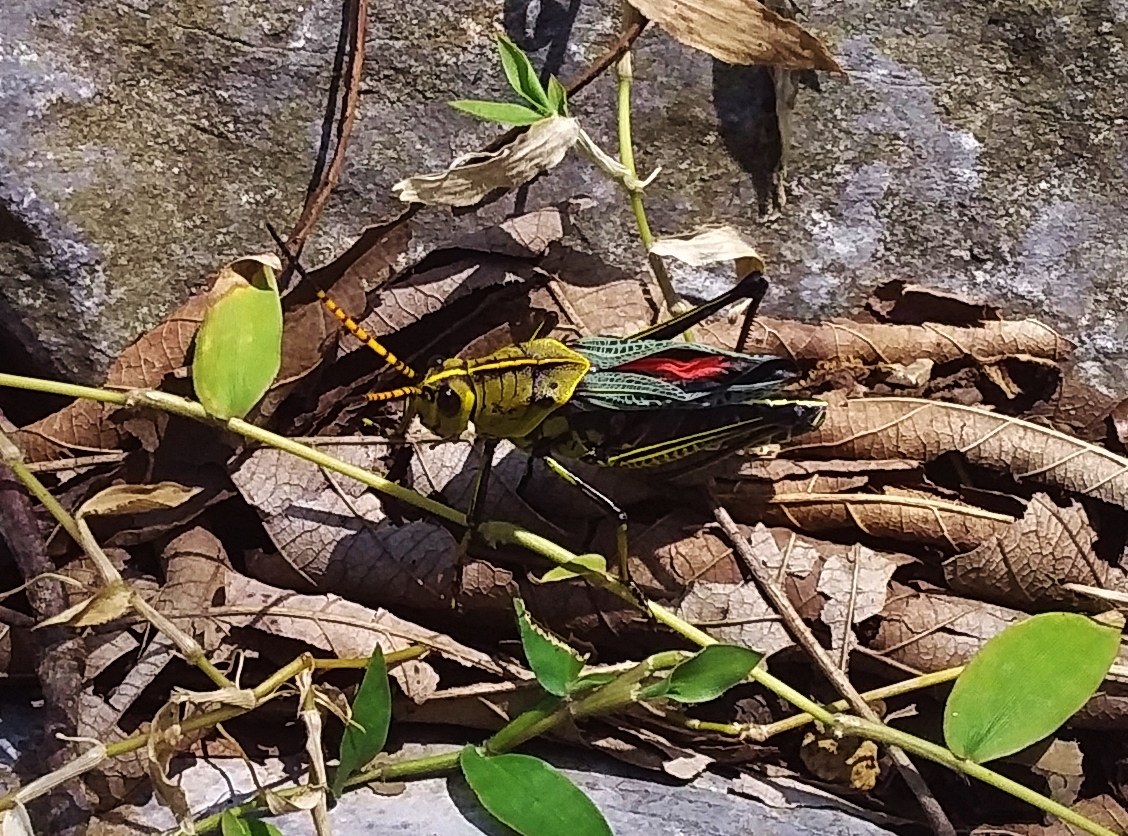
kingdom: Animalia
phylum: Arthropoda
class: Insecta
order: Orthoptera
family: Romaleidae
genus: Romalea
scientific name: Romalea
